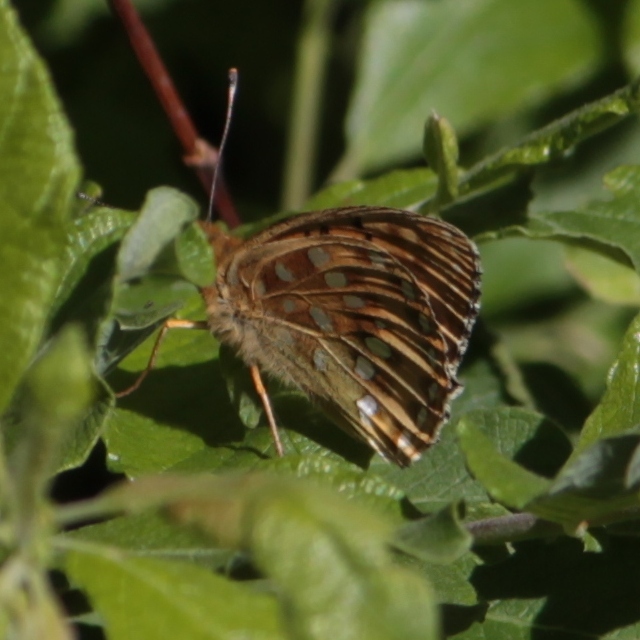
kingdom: Animalia
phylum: Arthropoda
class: Insecta
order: Lepidoptera
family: Nymphalidae
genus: Speyeria
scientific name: Speyeria aglaja
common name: Dark green fritillary
